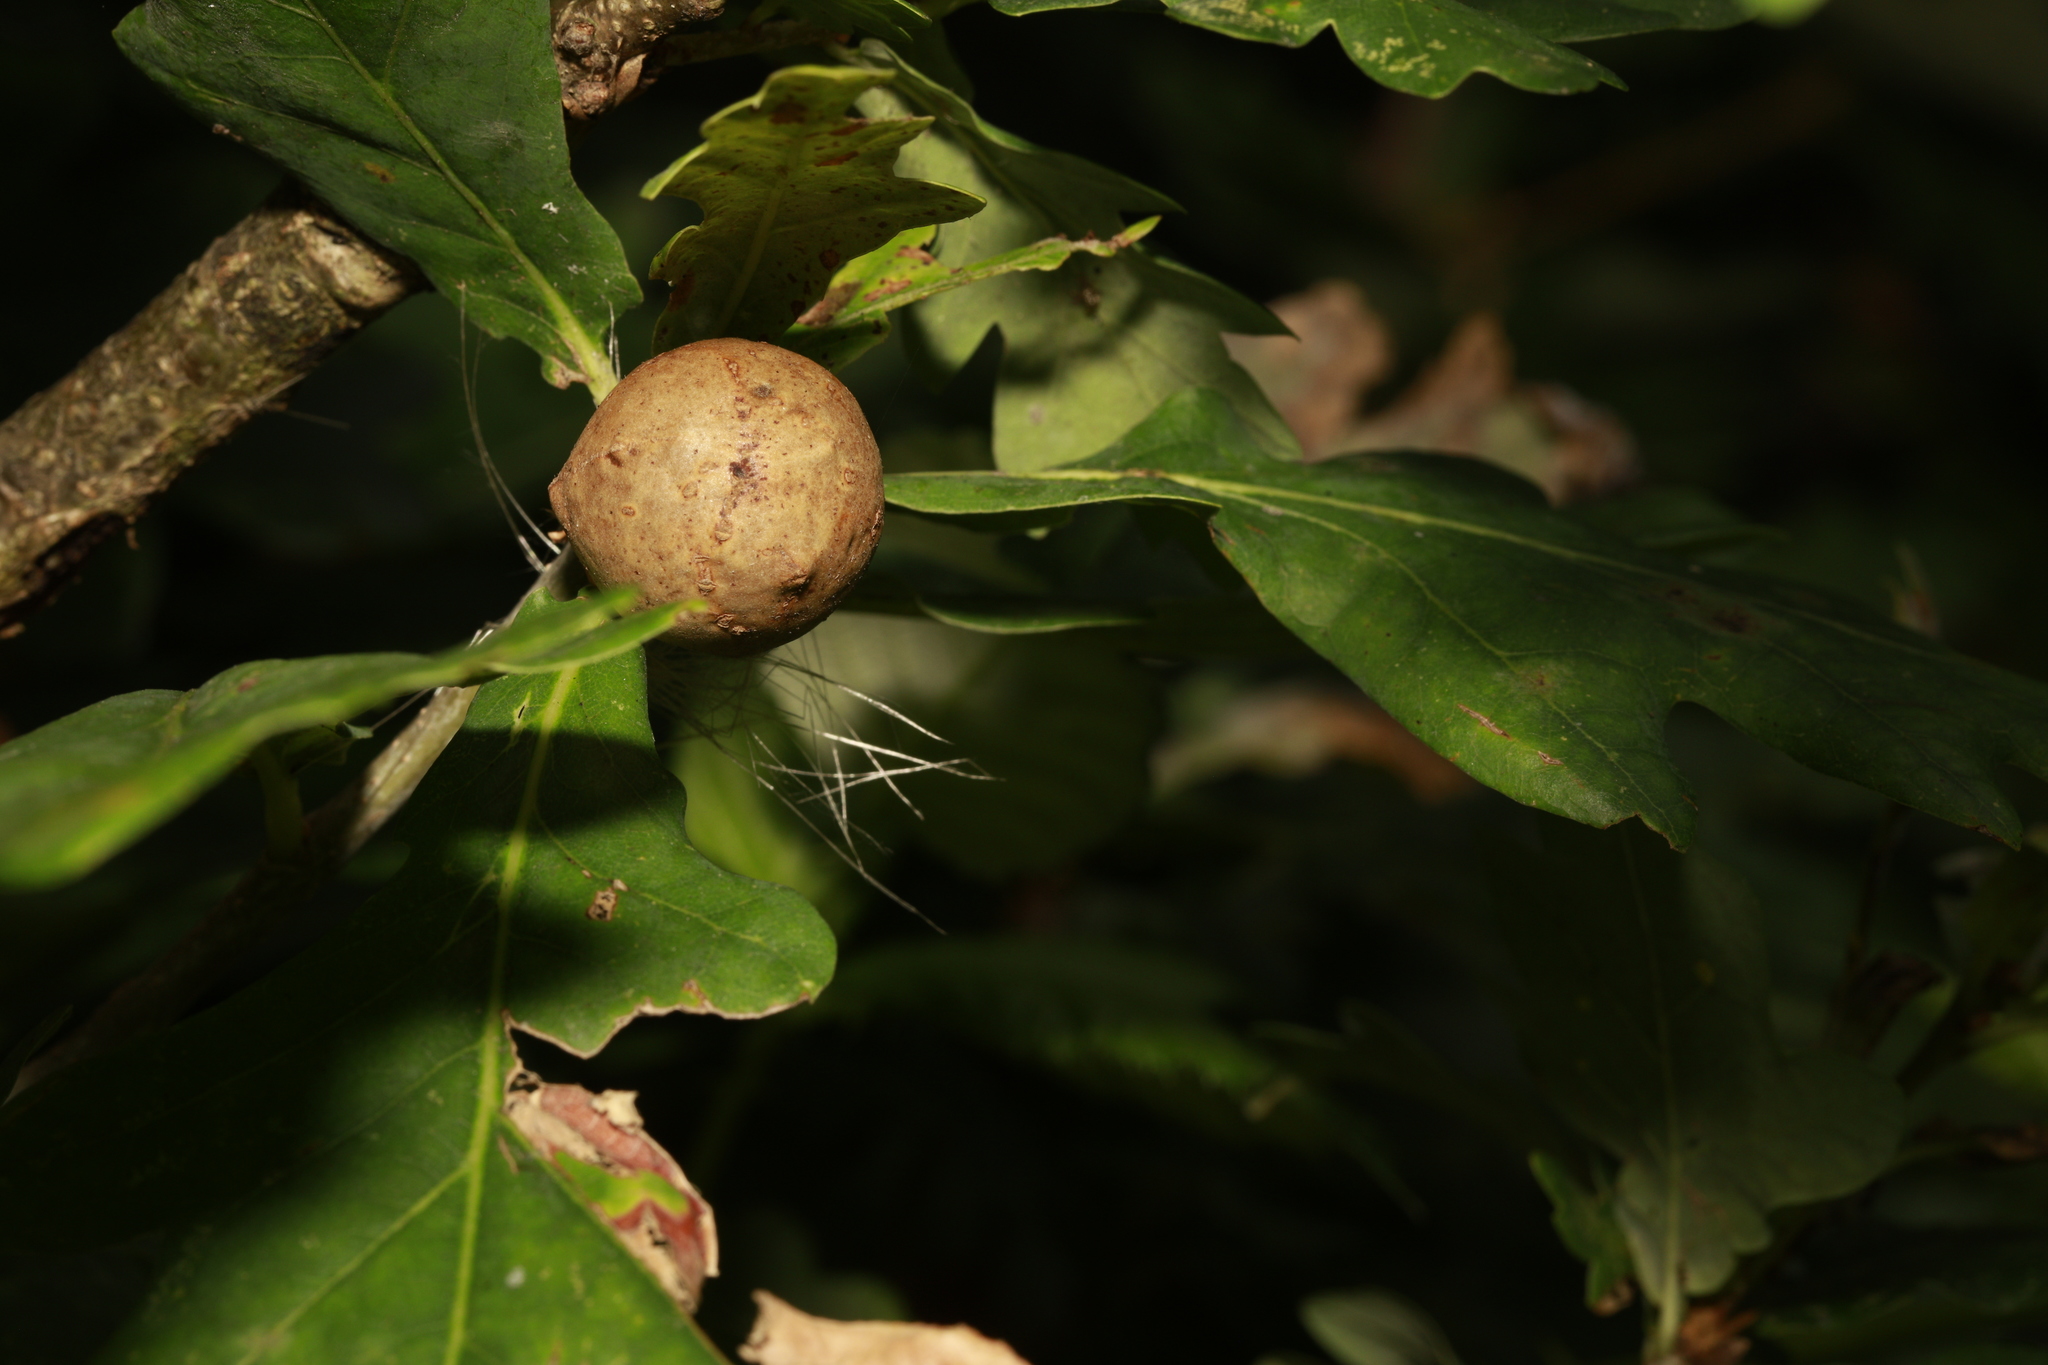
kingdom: Animalia
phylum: Arthropoda
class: Insecta
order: Hymenoptera
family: Cynipidae
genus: Andricus
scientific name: Andricus kollari
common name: Marble gall
